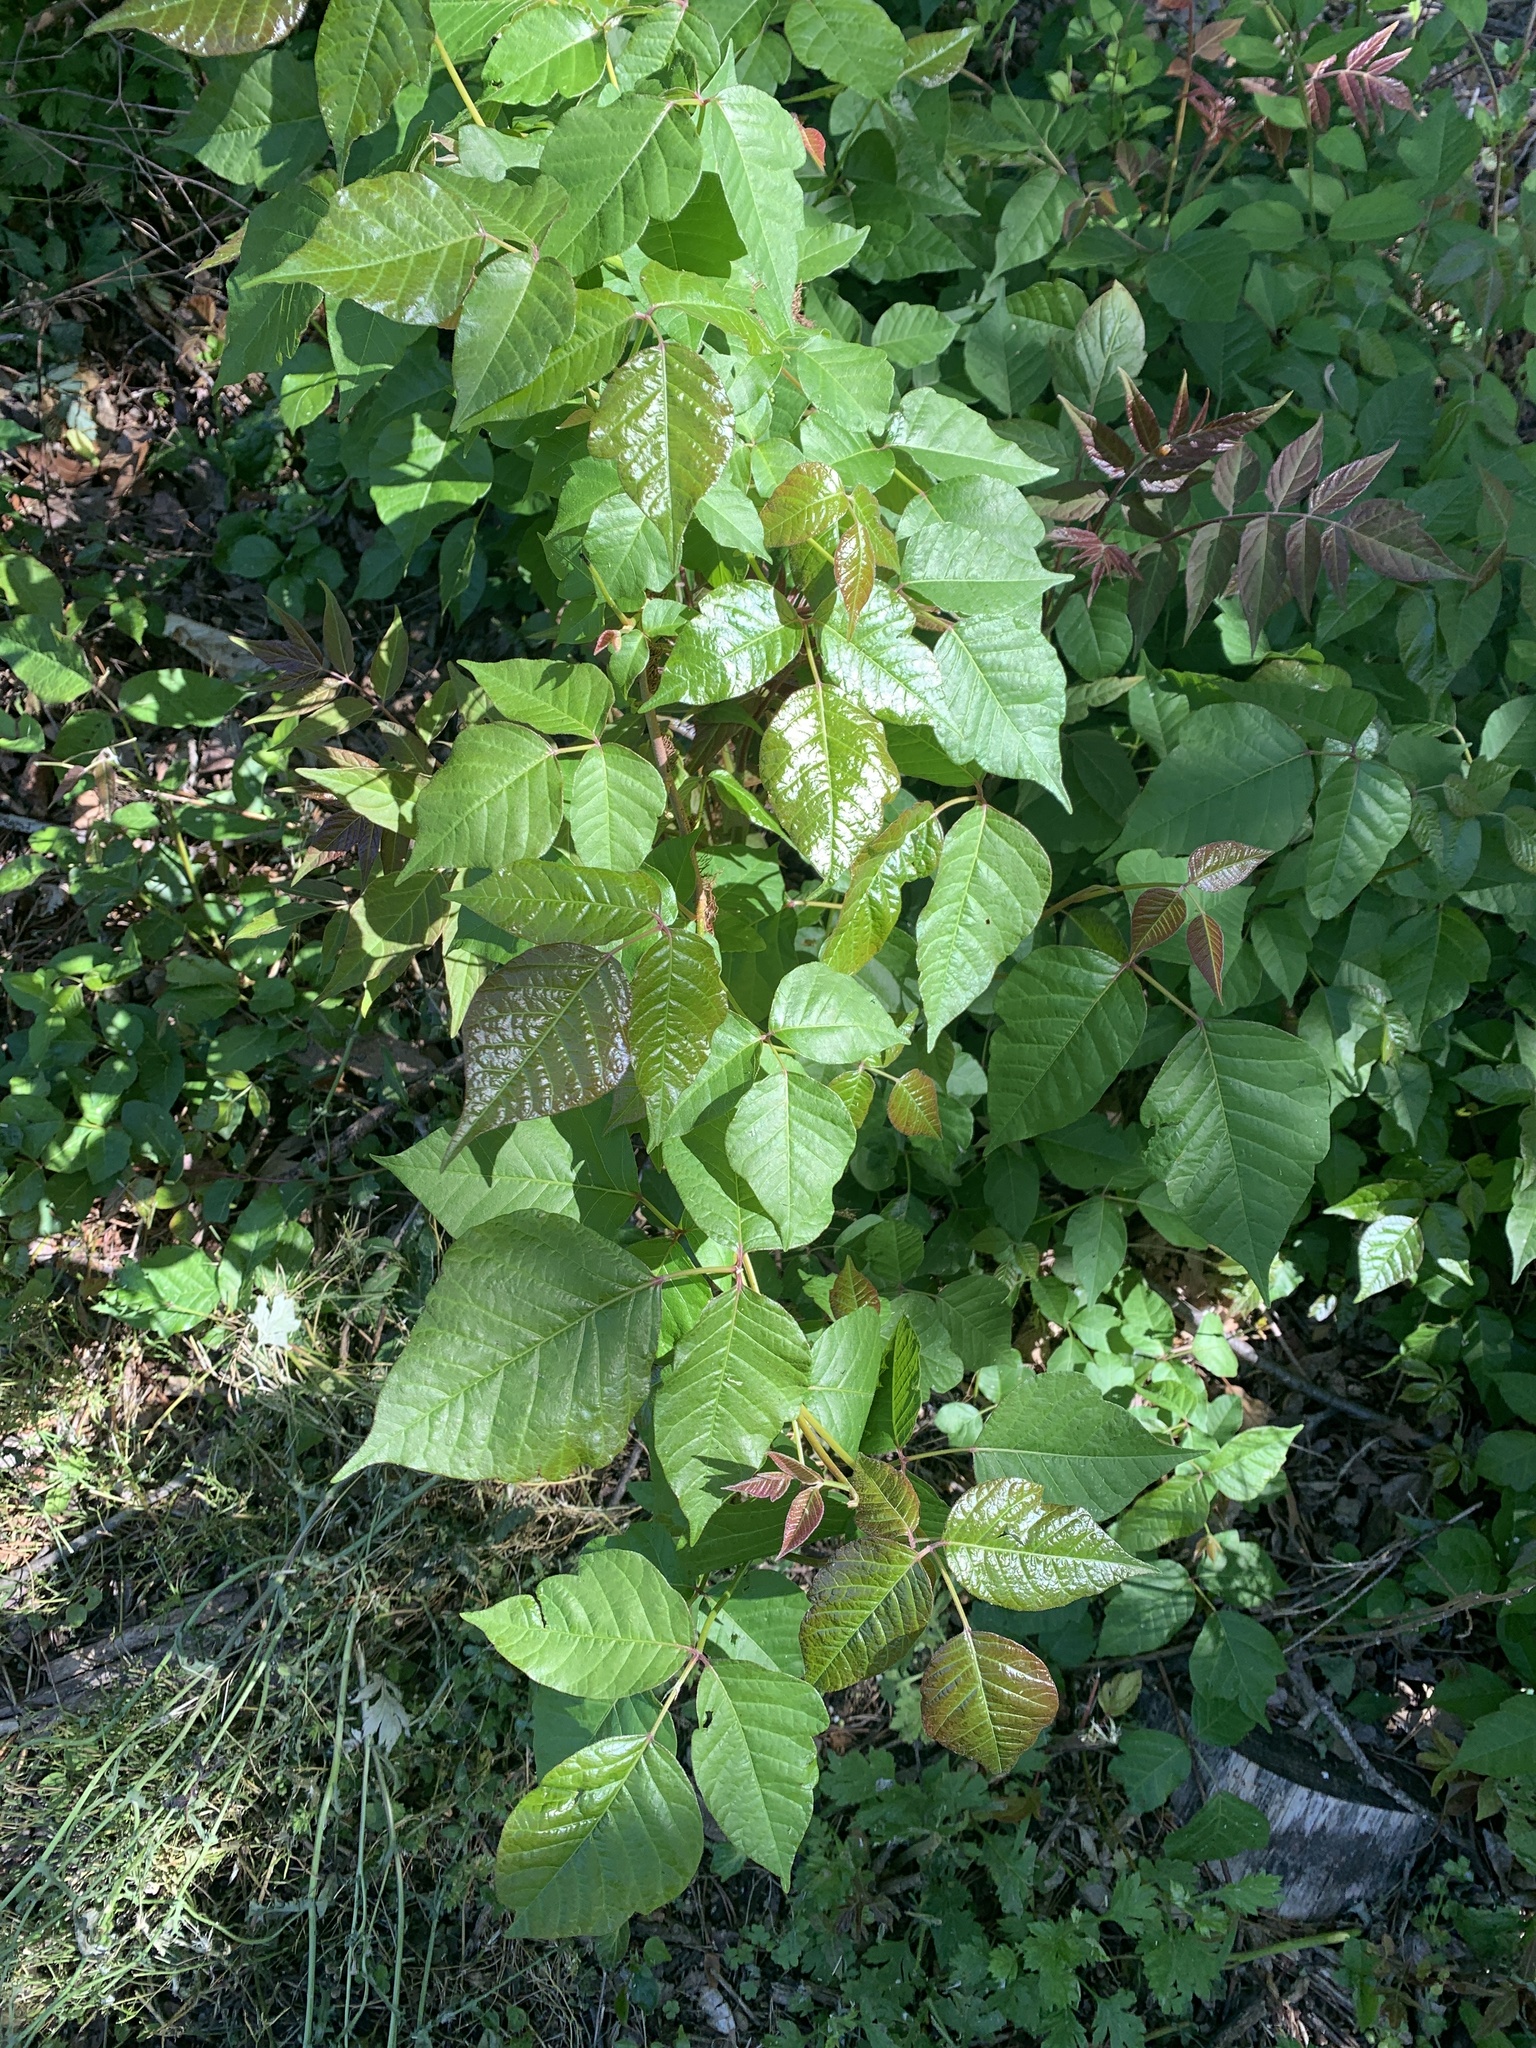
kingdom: Plantae
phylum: Tracheophyta
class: Magnoliopsida
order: Sapindales
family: Anacardiaceae
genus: Toxicodendron
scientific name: Toxicodendron radicans
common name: Poison ivy
